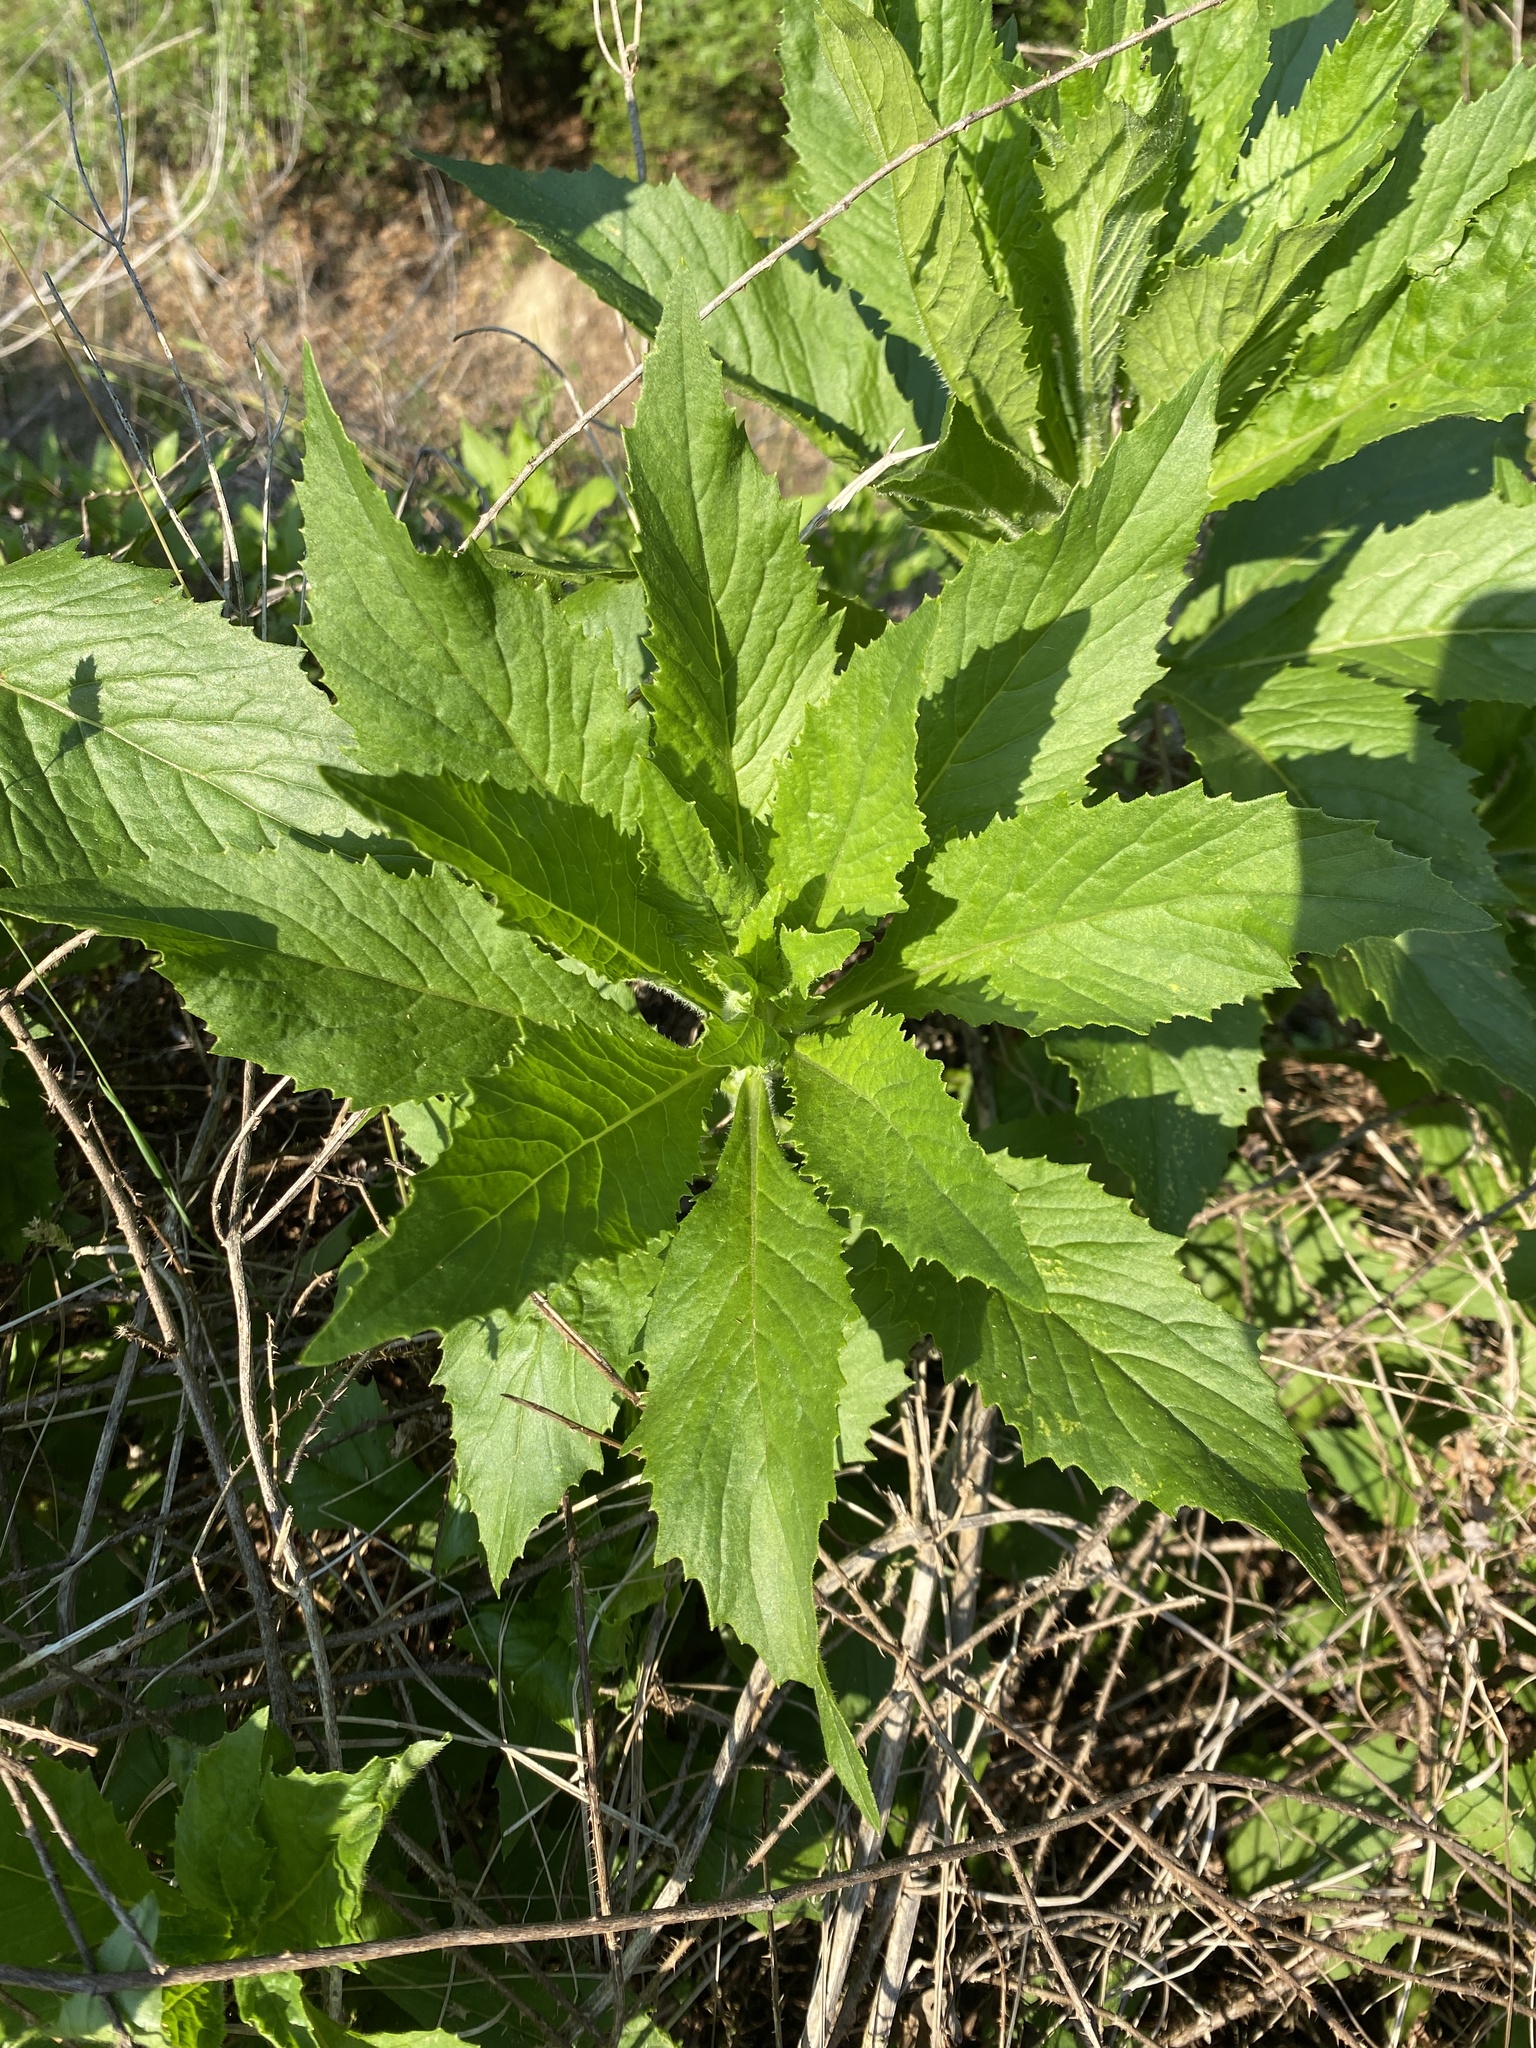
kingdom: Plantae
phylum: Tracheophyta
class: Magnoliopsida
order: Asterales
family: Asteraceae
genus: Erechtites
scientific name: Erechtites hieraciifolius
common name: American burnweed
